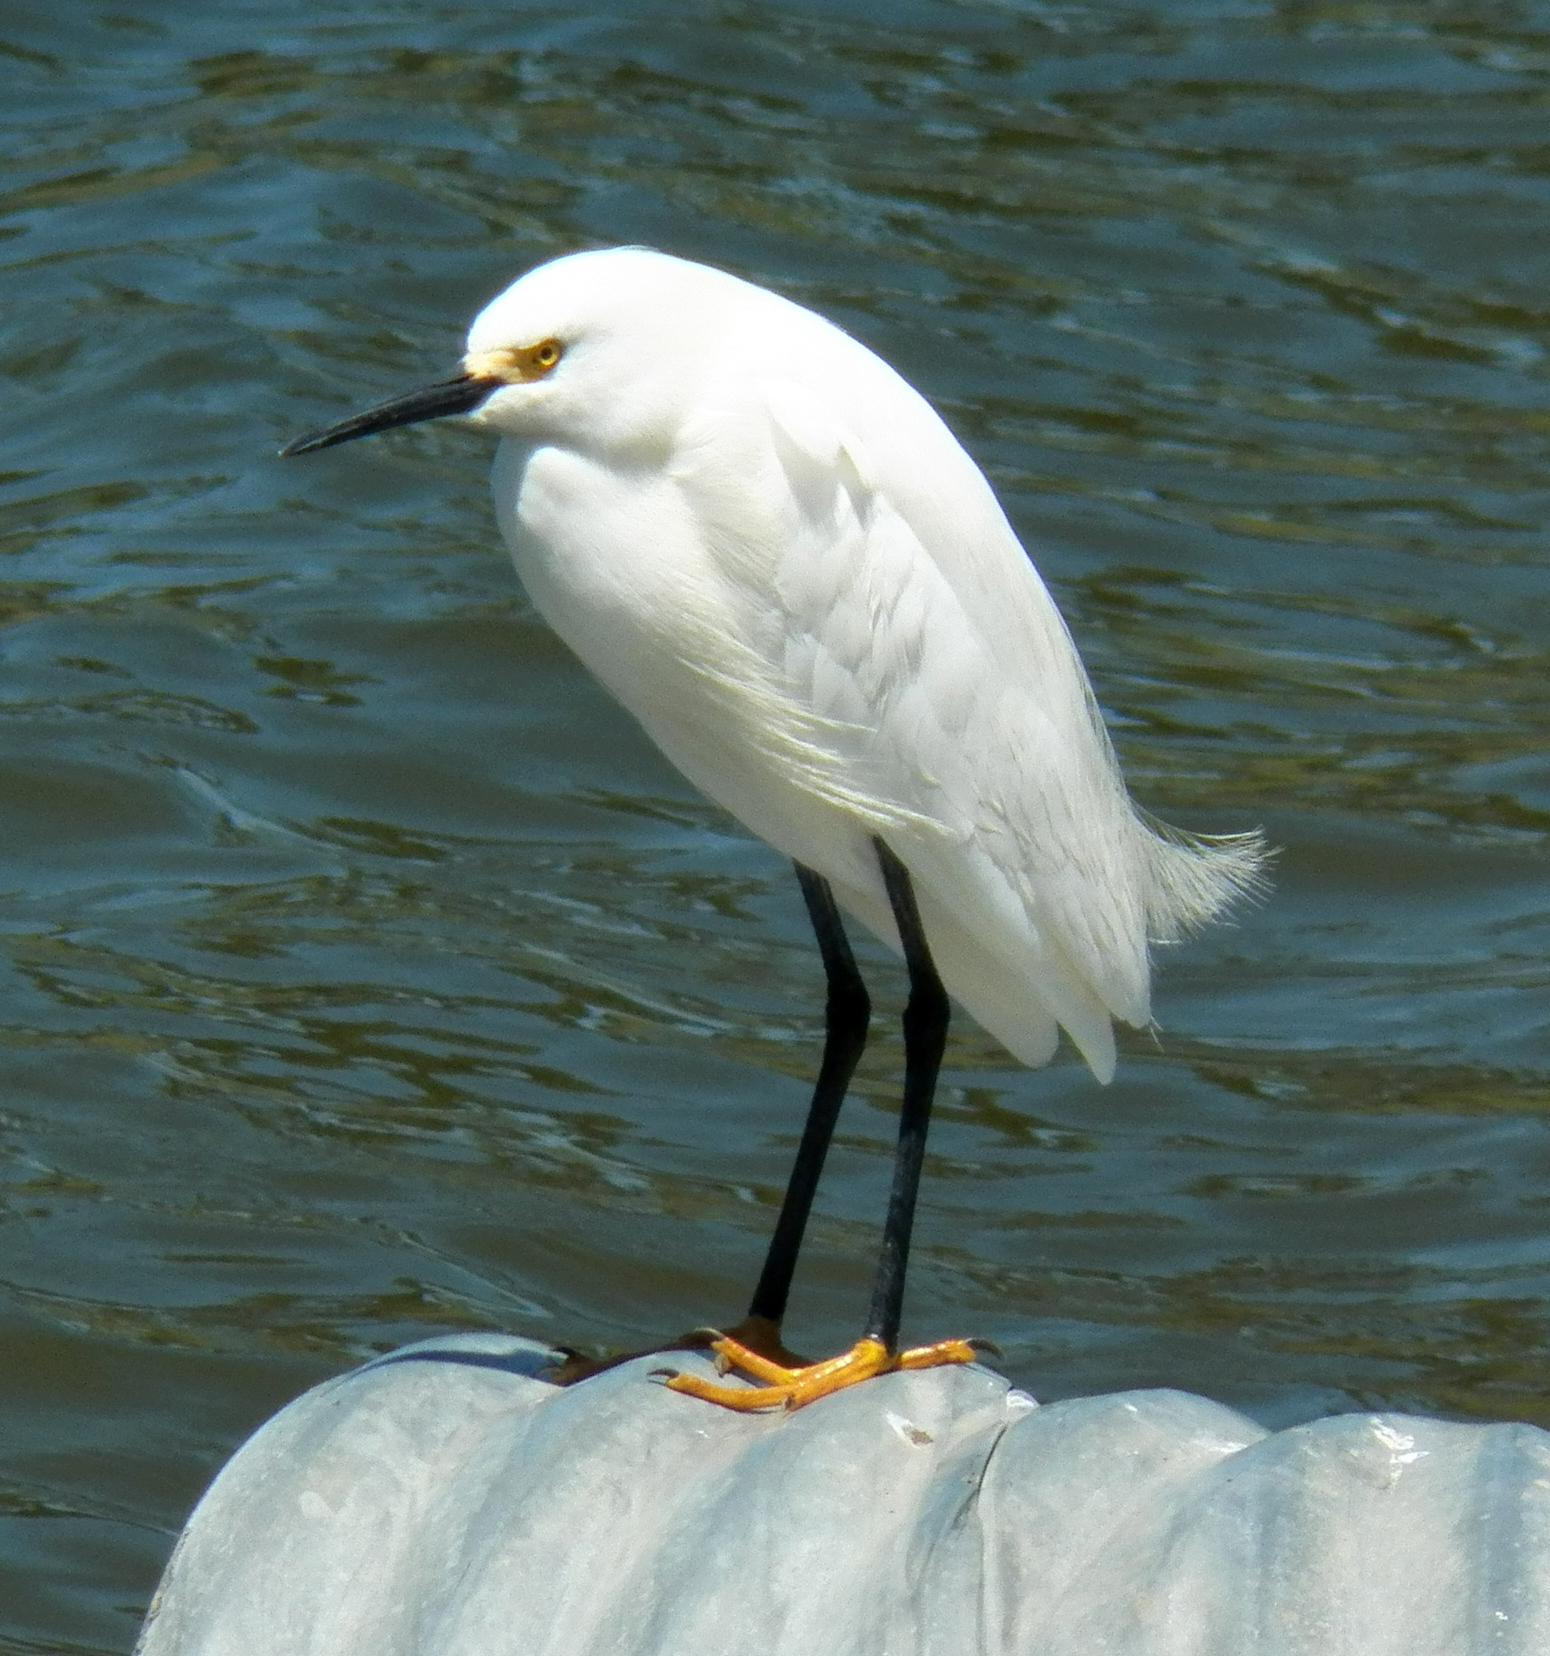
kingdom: Animalia
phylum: Chordata
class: Aves
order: Pelecaniformes
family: Ardeidae
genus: Egretta
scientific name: Egretta thula
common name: Snowy egret
